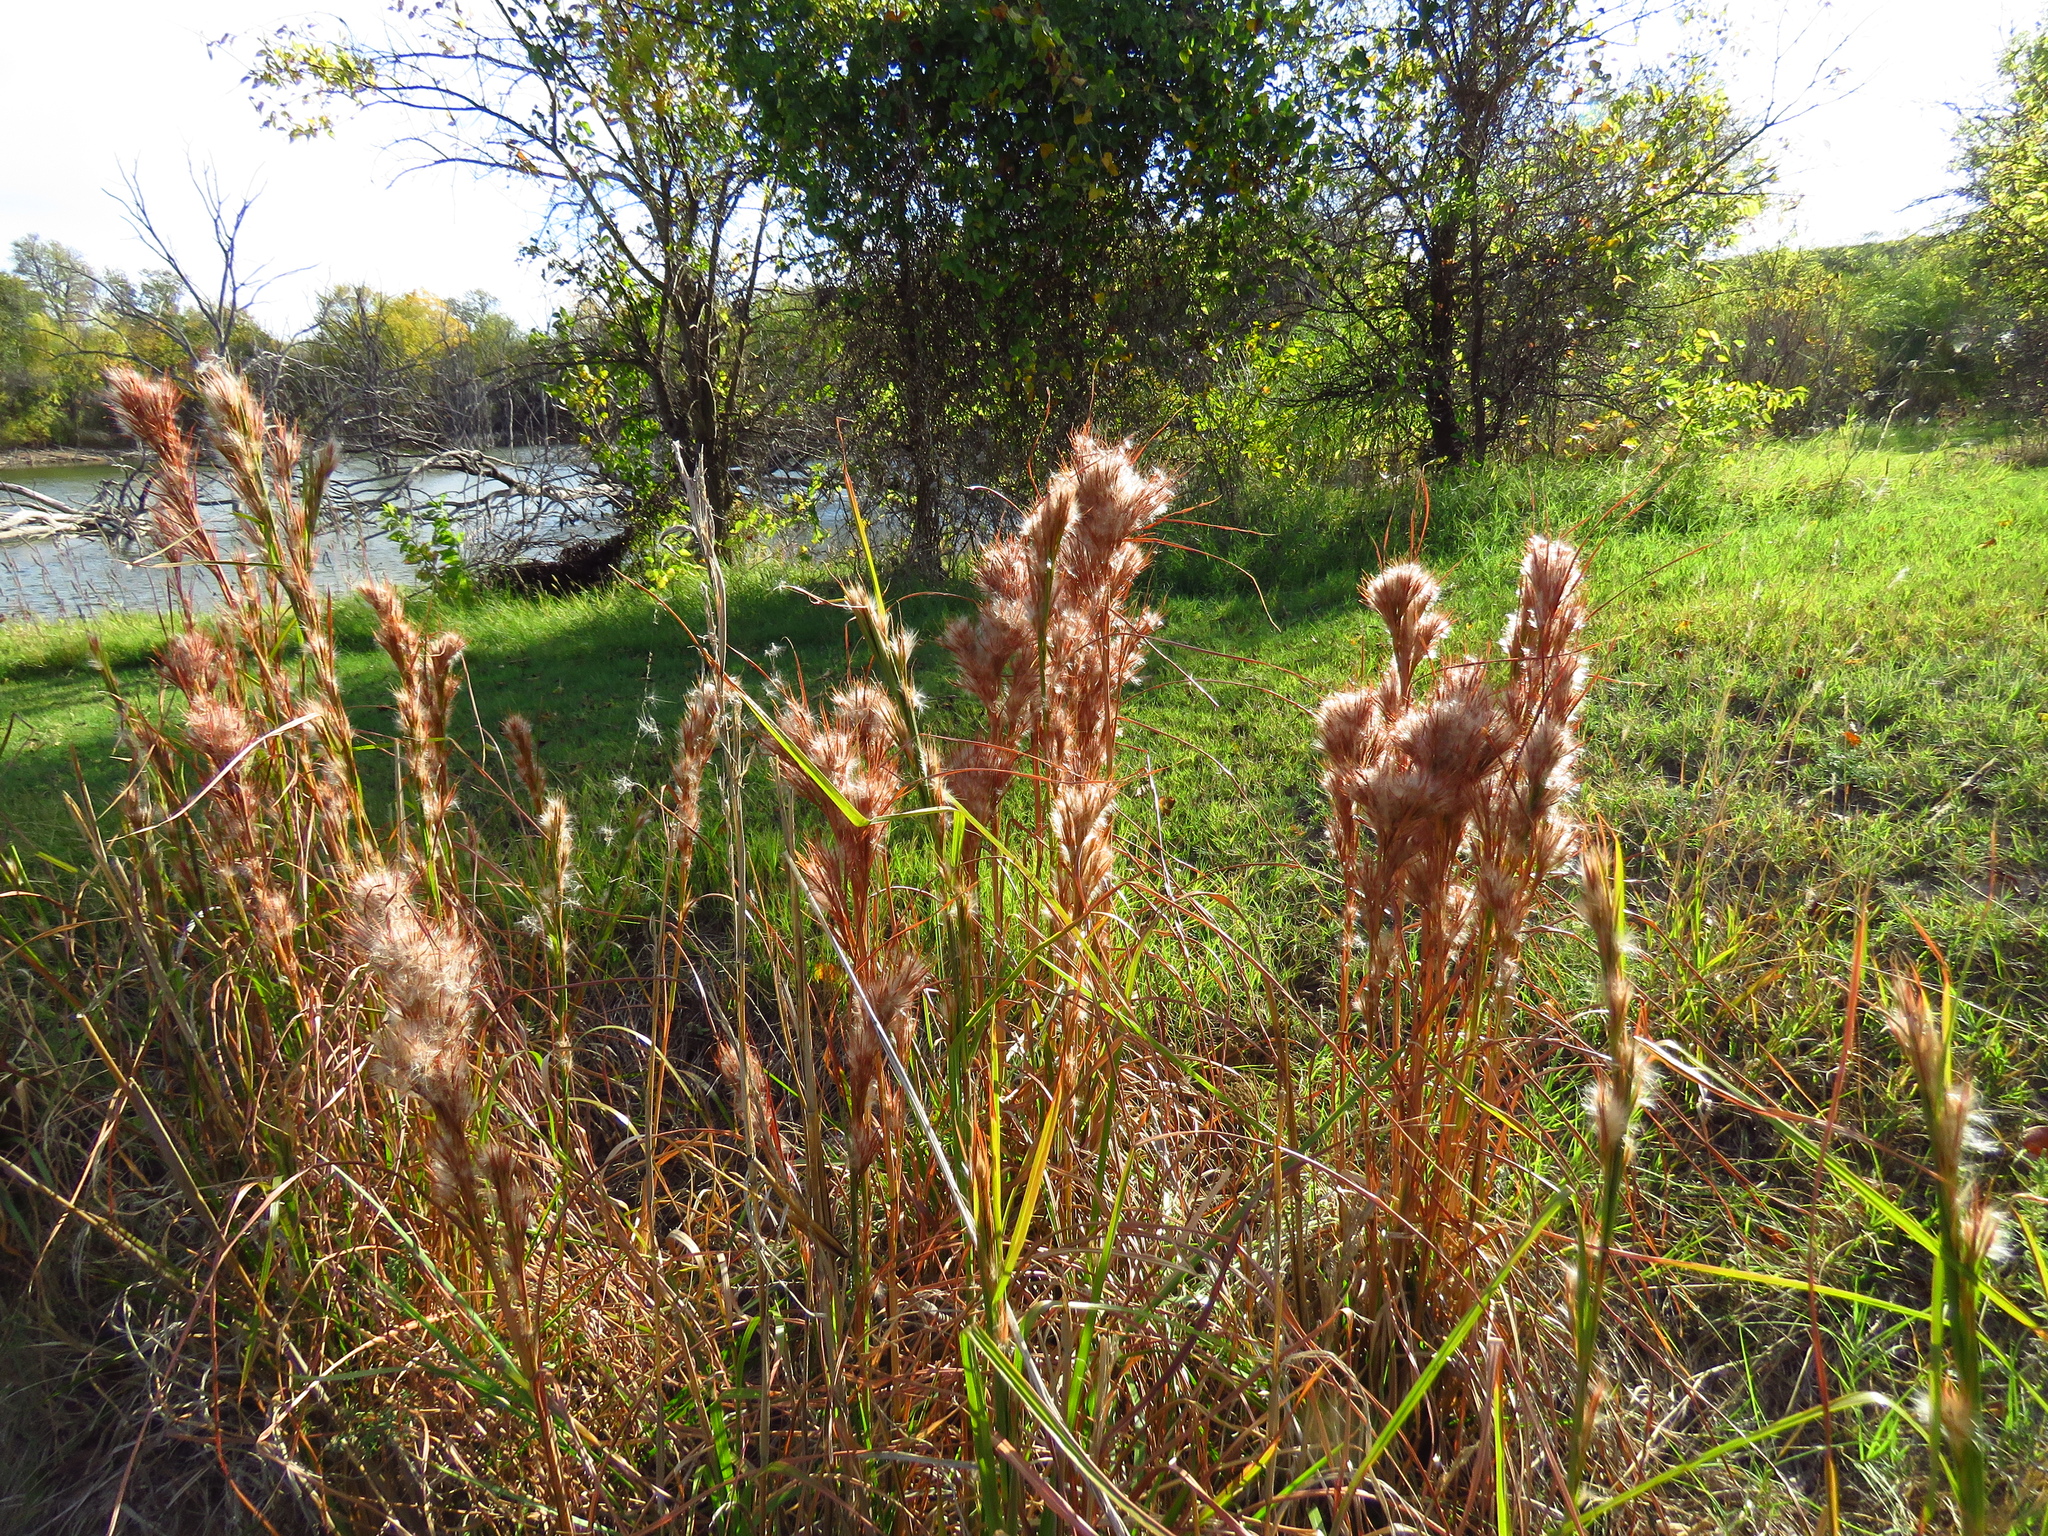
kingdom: Plantae
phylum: Tracheophyta
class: Liliopsida
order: Poales
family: Poaceae
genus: Andropogon
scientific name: Andropogon tenuispatheus
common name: Bushy bluestem
